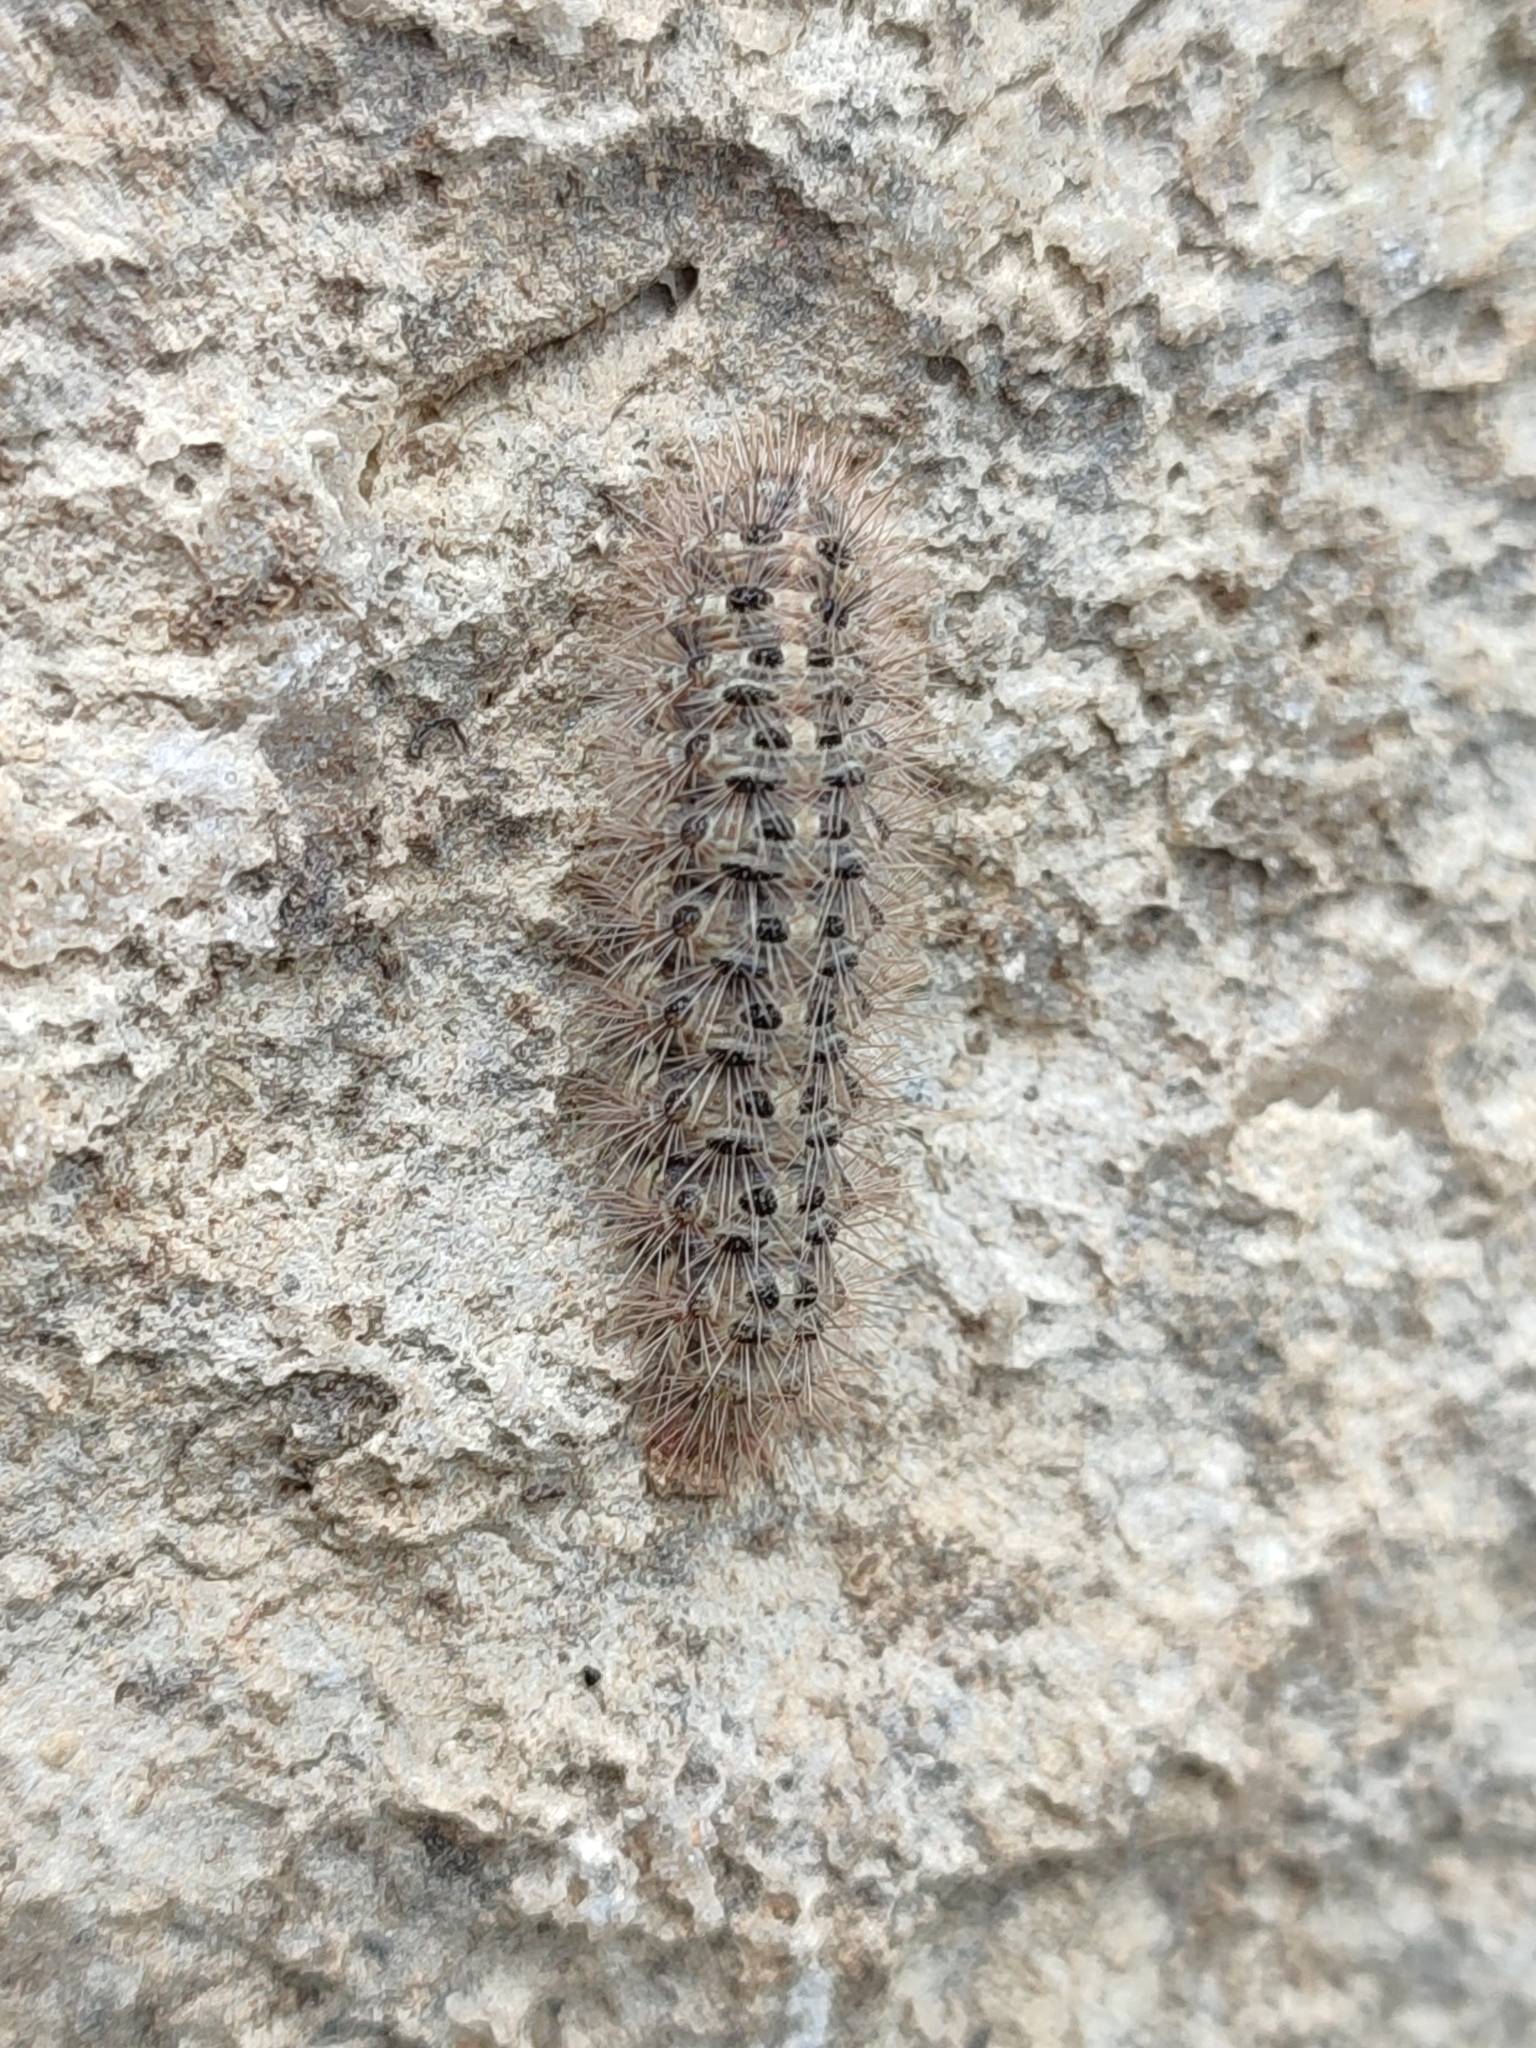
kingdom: Animalia
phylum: Arthropoda
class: Insecta
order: Lepidoptera
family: Erebidae
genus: Cymbalophora
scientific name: Cymbalophora pudica
